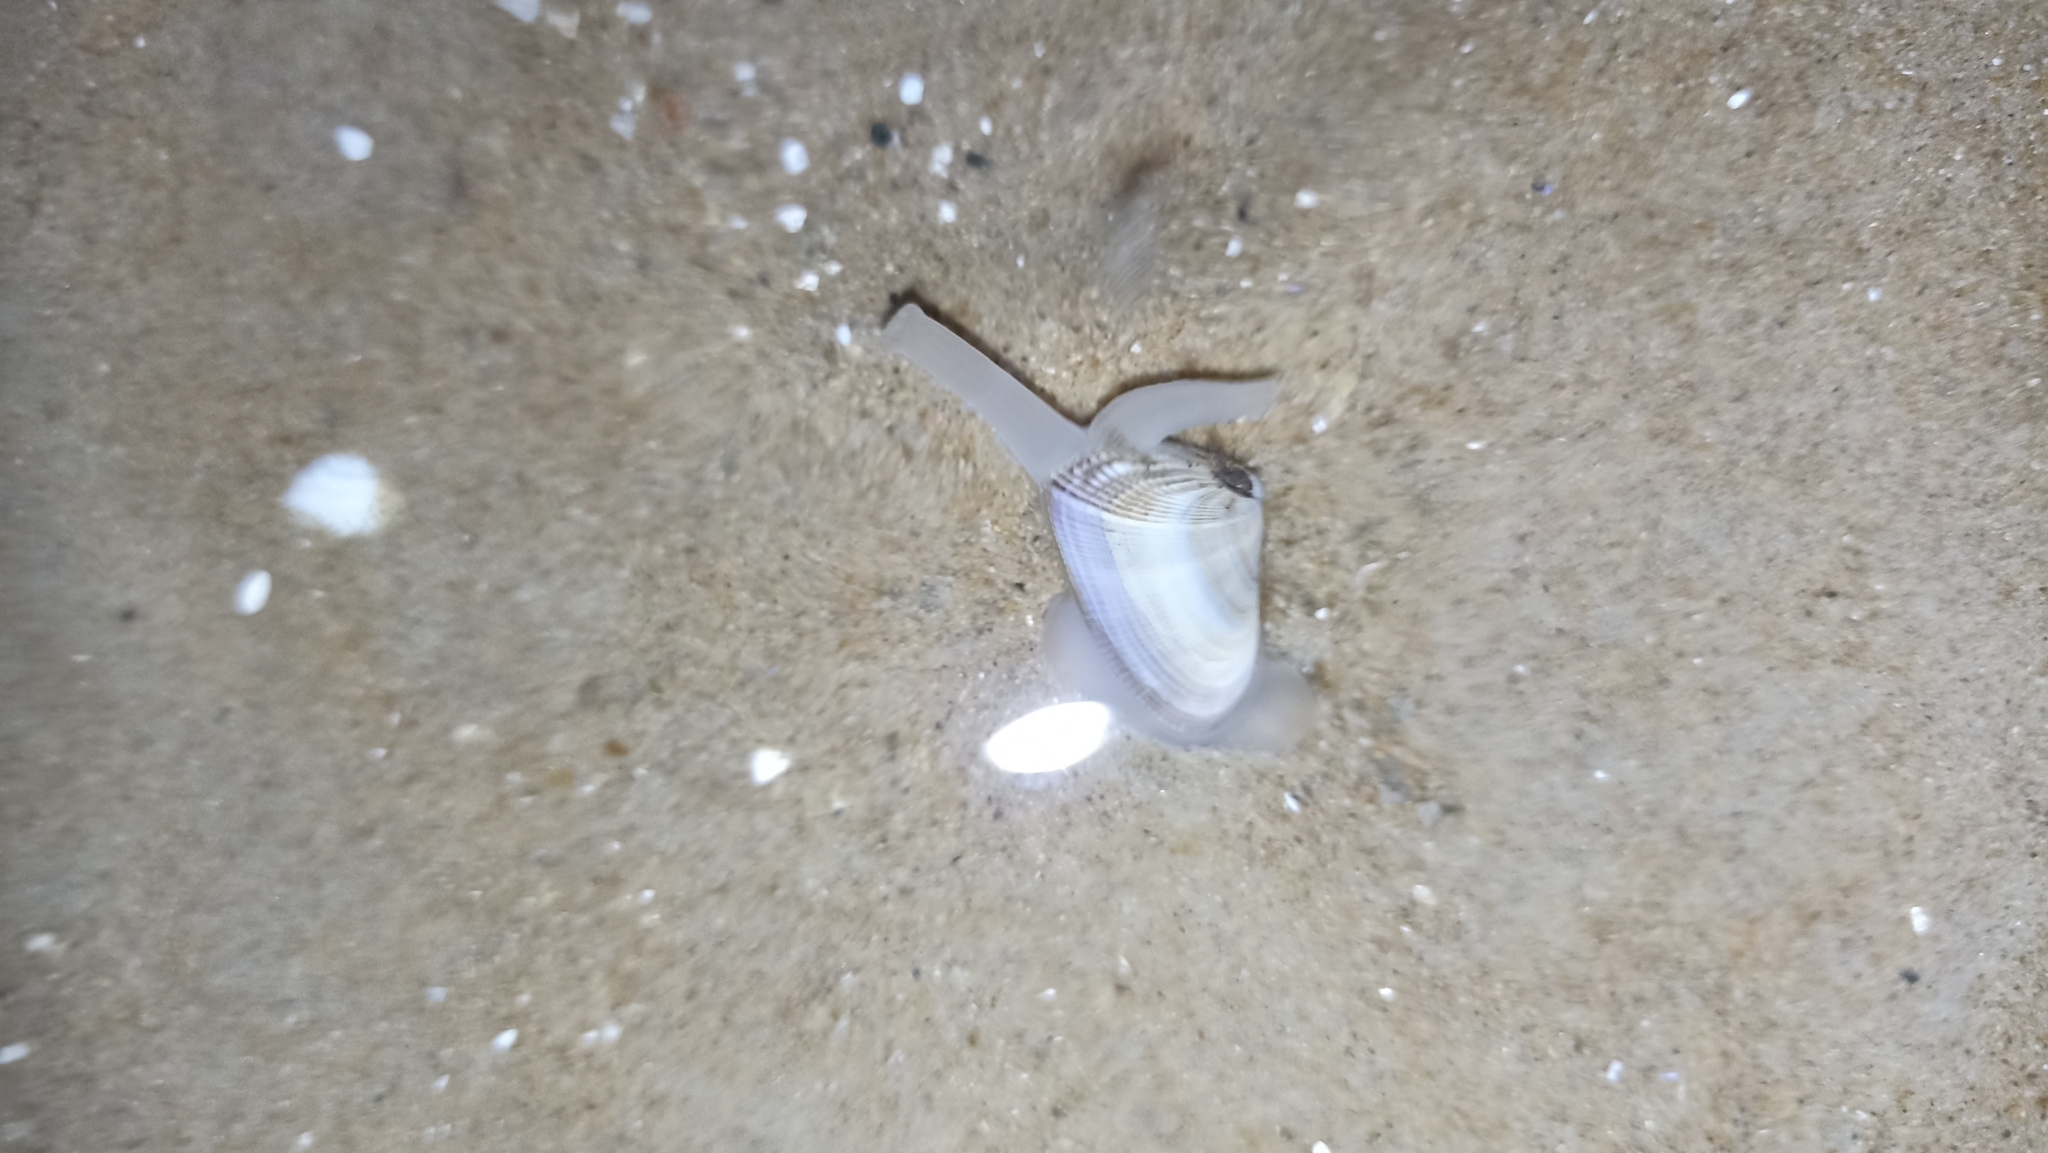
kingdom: Animalia
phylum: Mollusca
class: Bivalvia
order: Cardiida
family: Donacidae
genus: Donax
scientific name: Donax hanleyanus
